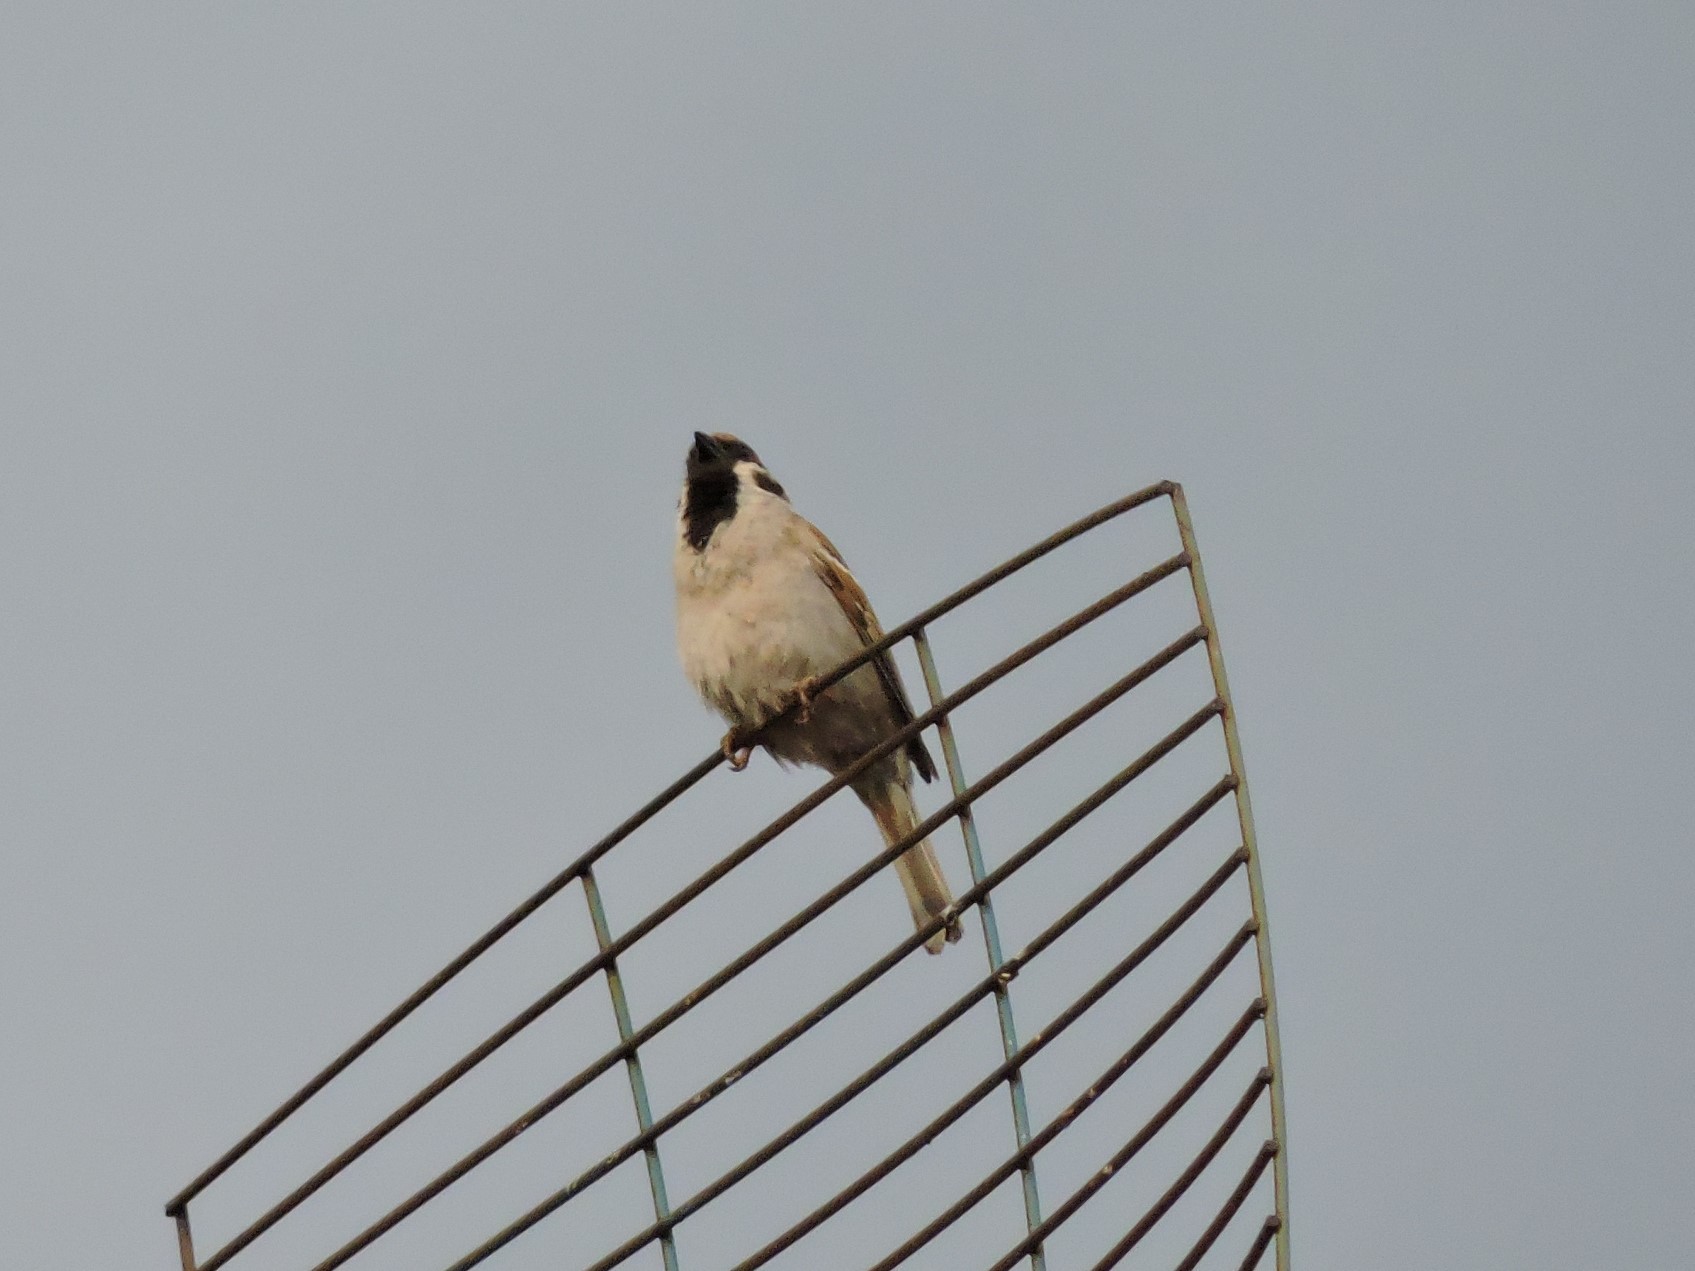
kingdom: Animalia
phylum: Chordata
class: Aves
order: Passeriformes
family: Passeridae
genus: Passer
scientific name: Passer montanus
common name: Eurasian tree sparrow
